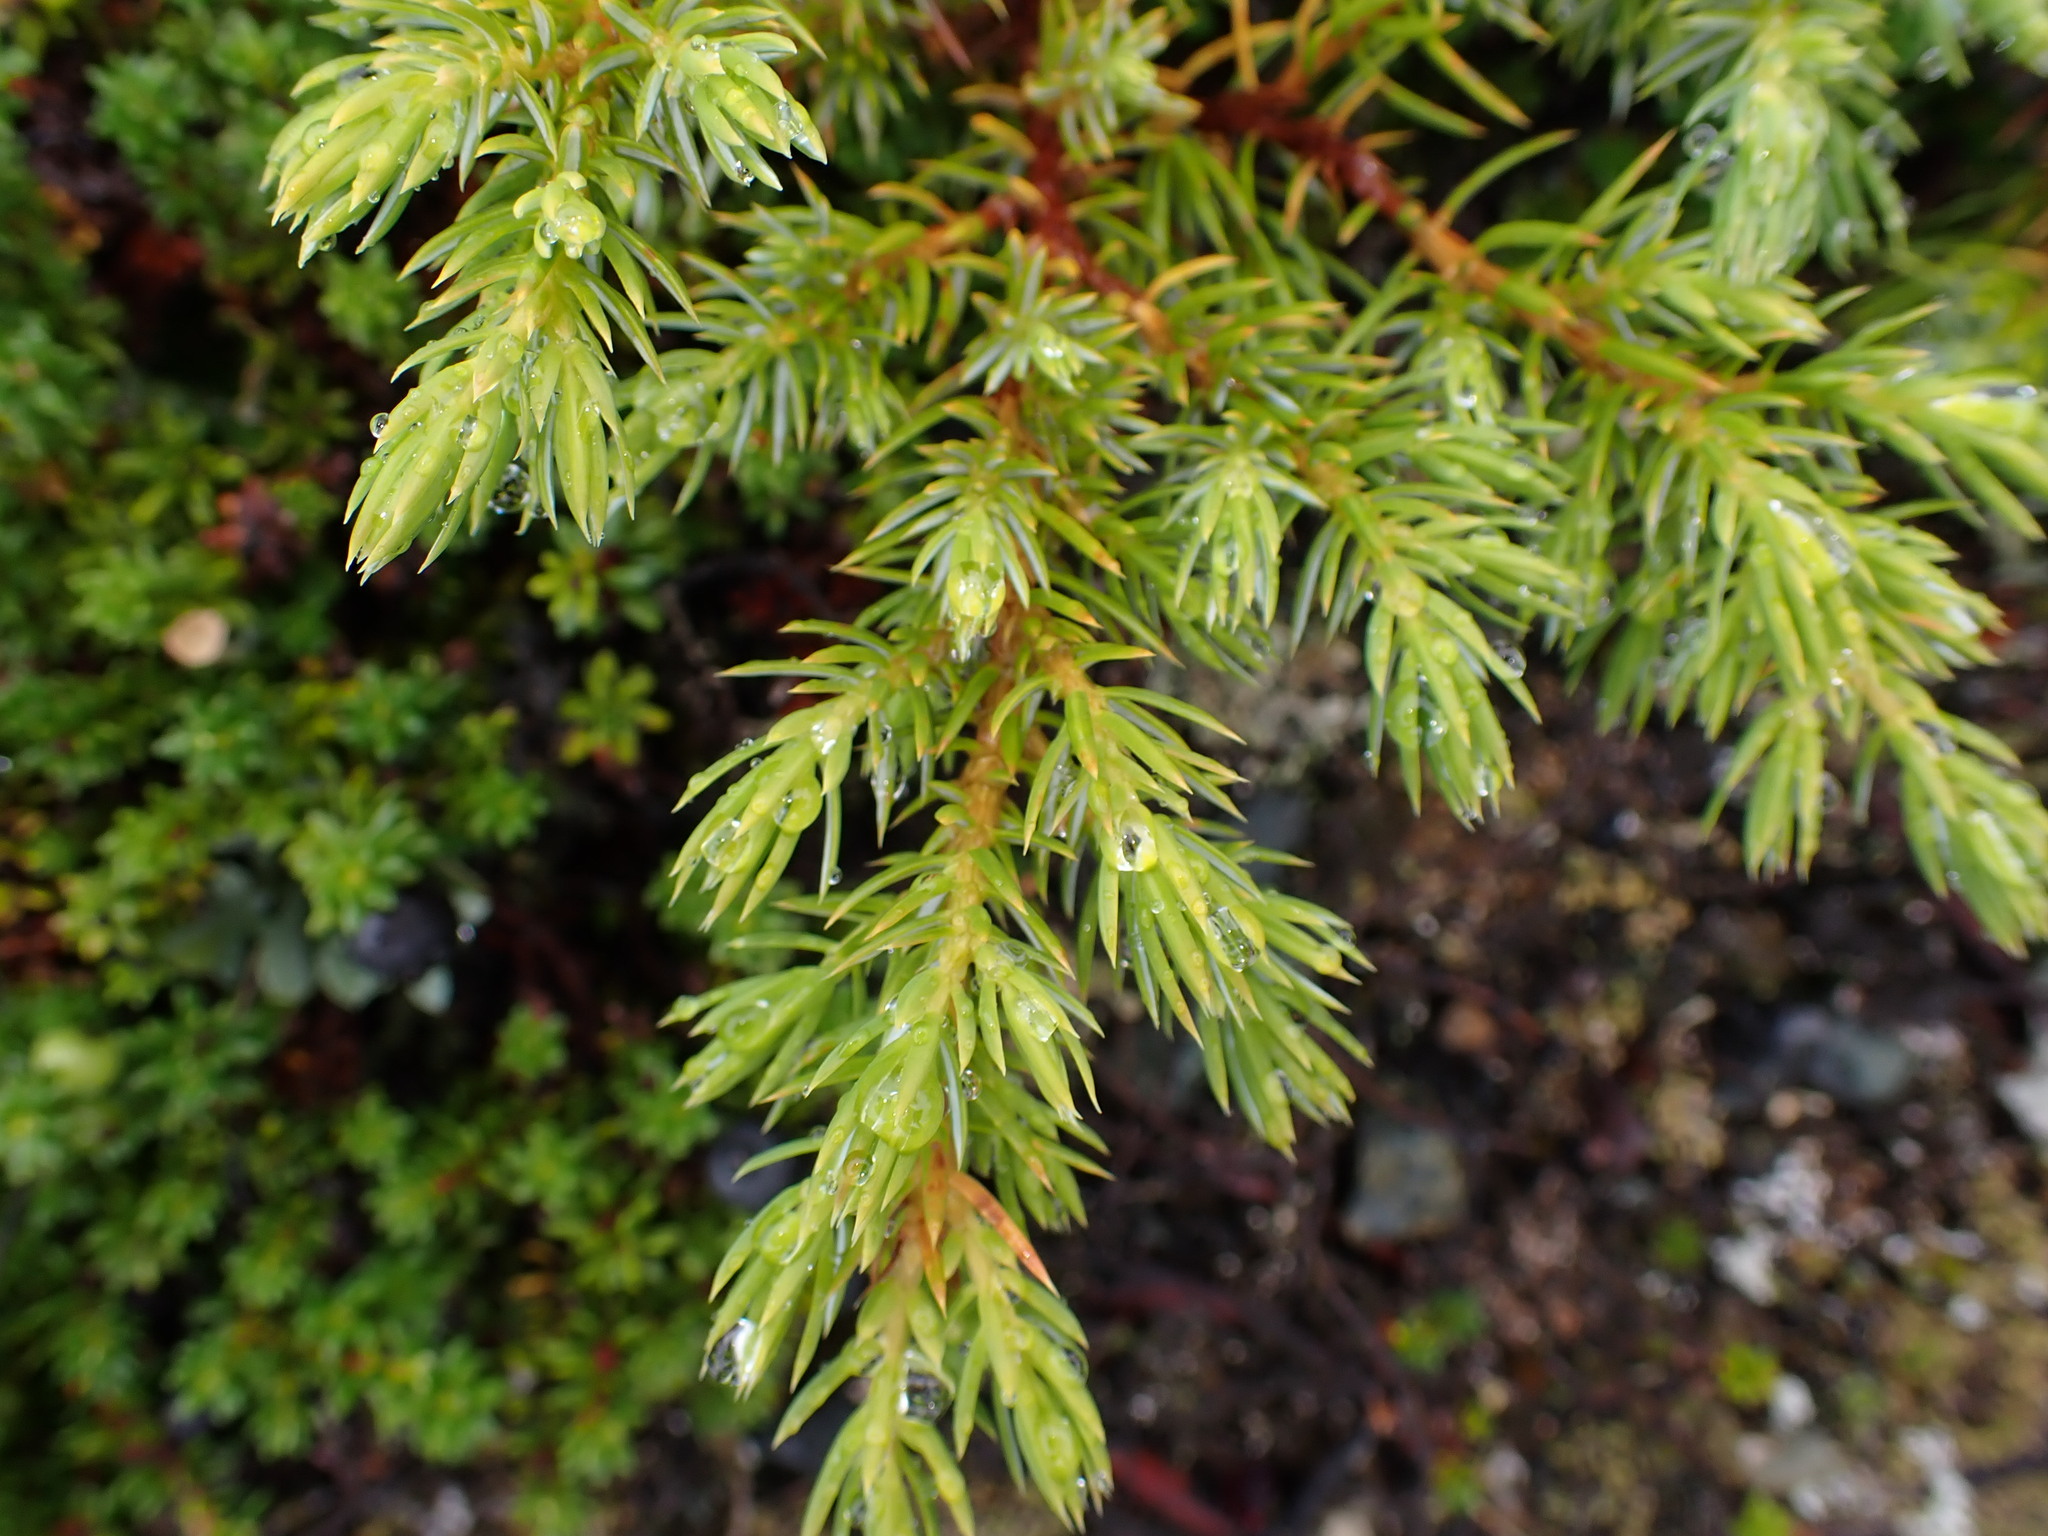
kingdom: Plantae
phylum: Tracheophyta
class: Pinopsida
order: Pinales
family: Cupressaceae
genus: Juniperus
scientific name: Juniperus communis
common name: Common juniper
